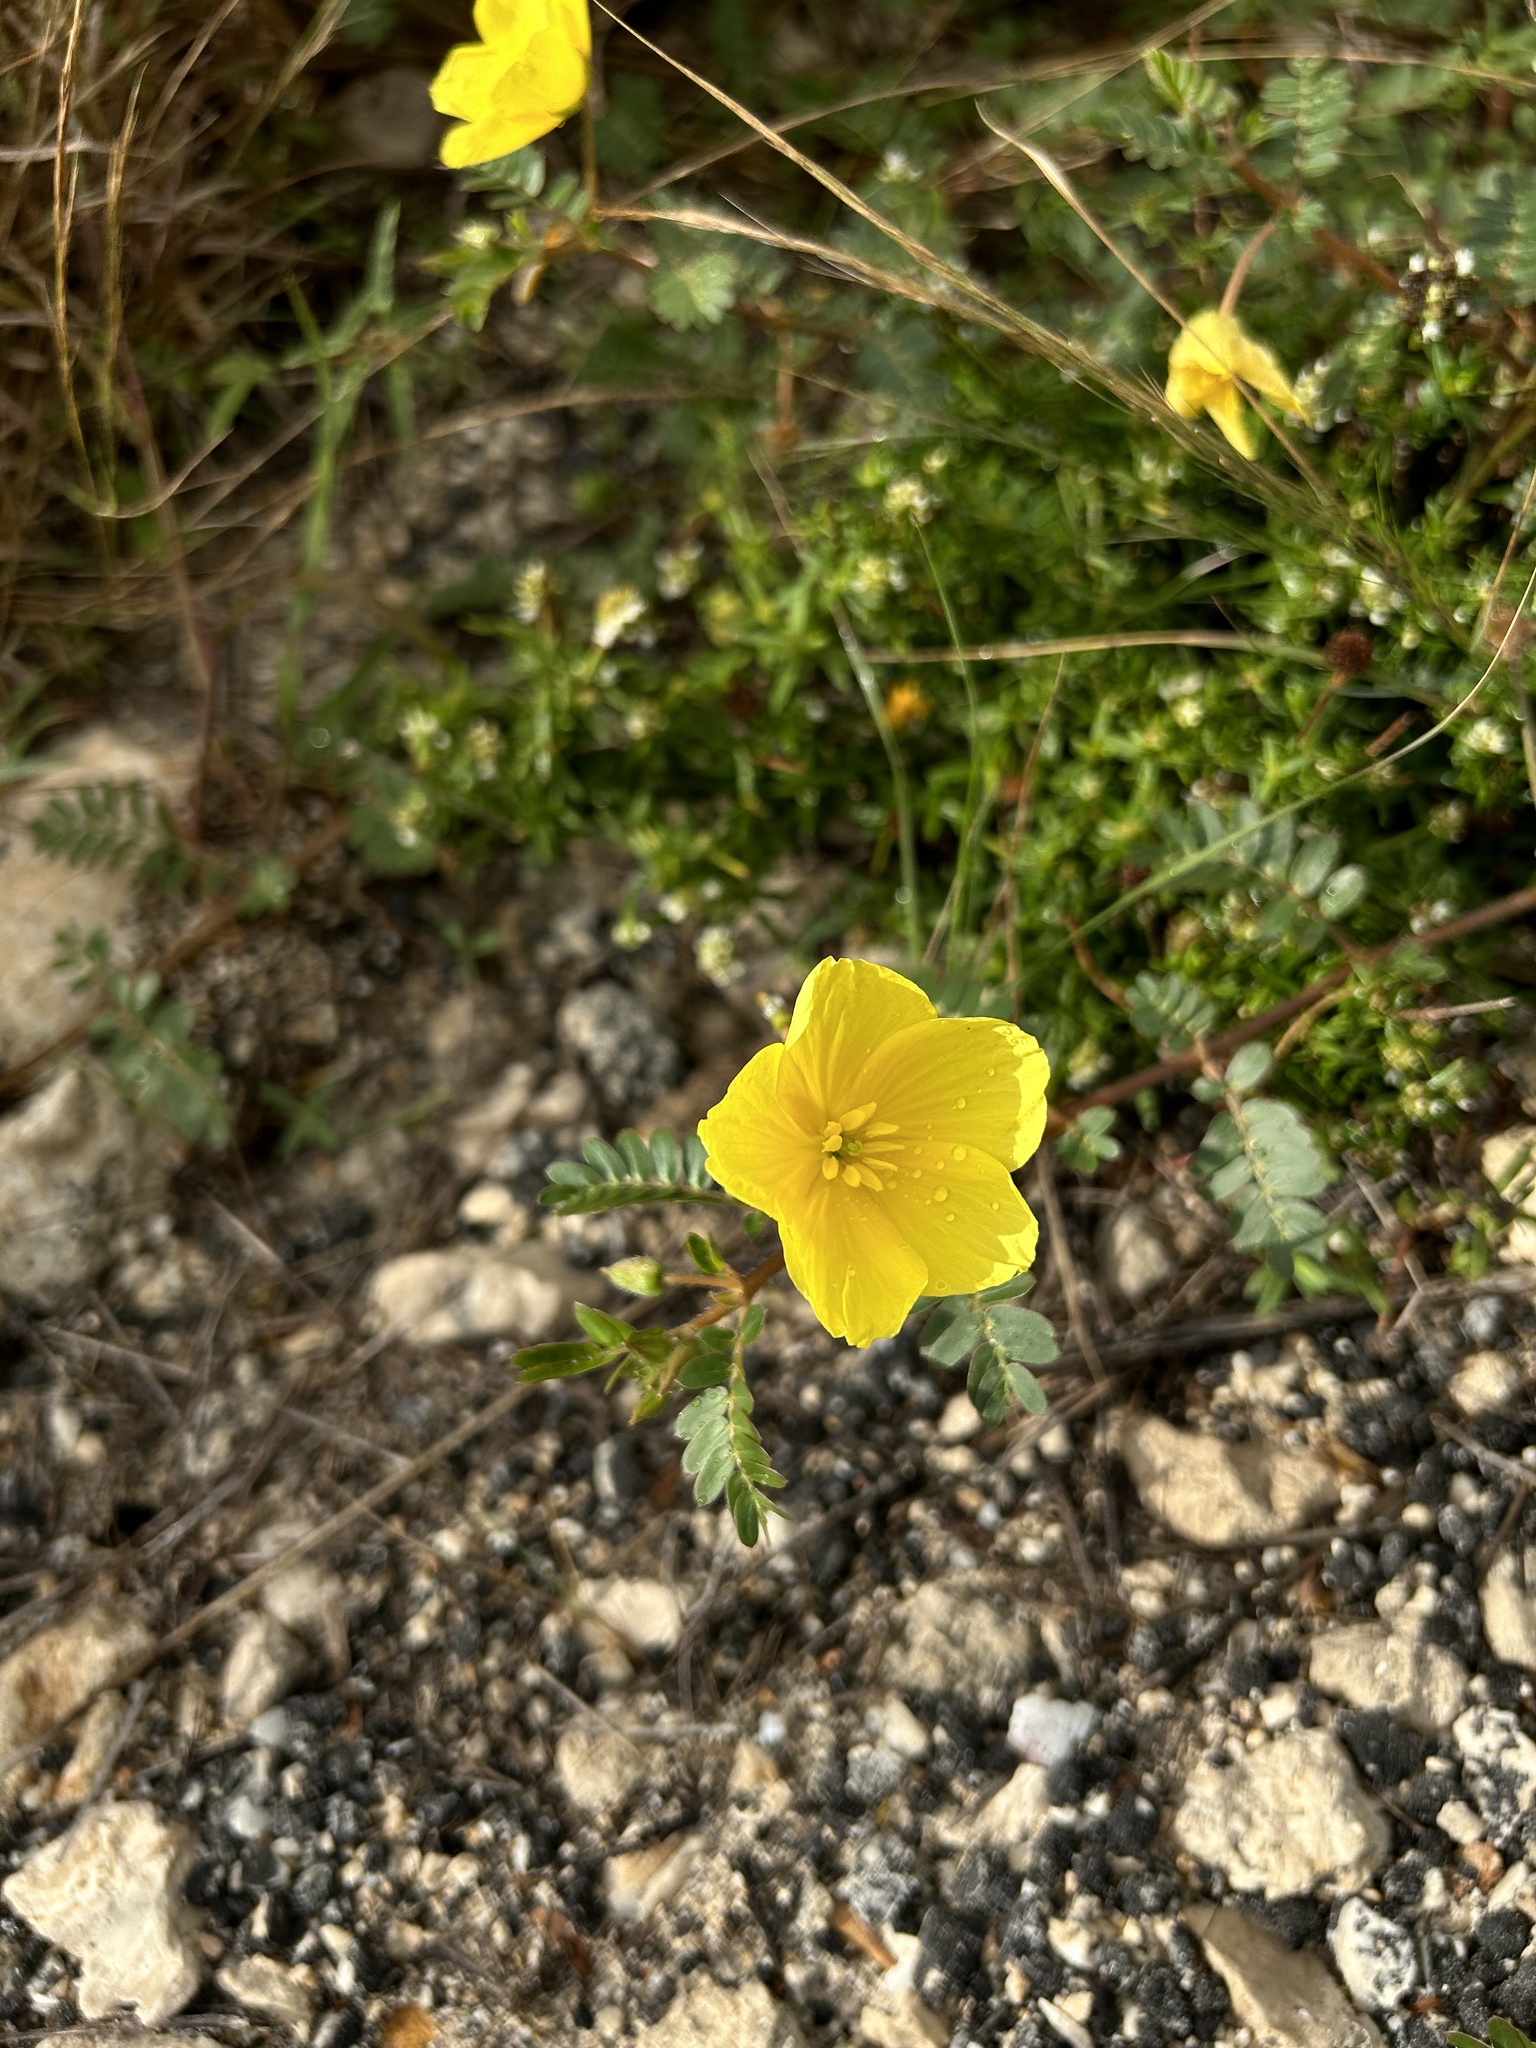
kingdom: Plantae
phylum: Tracheophyta
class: Magnoliopsida
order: Zygophyllales
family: Zygophyllaceae
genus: Tribulus
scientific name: Tribulus cistoides
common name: Jamaican feverplant
